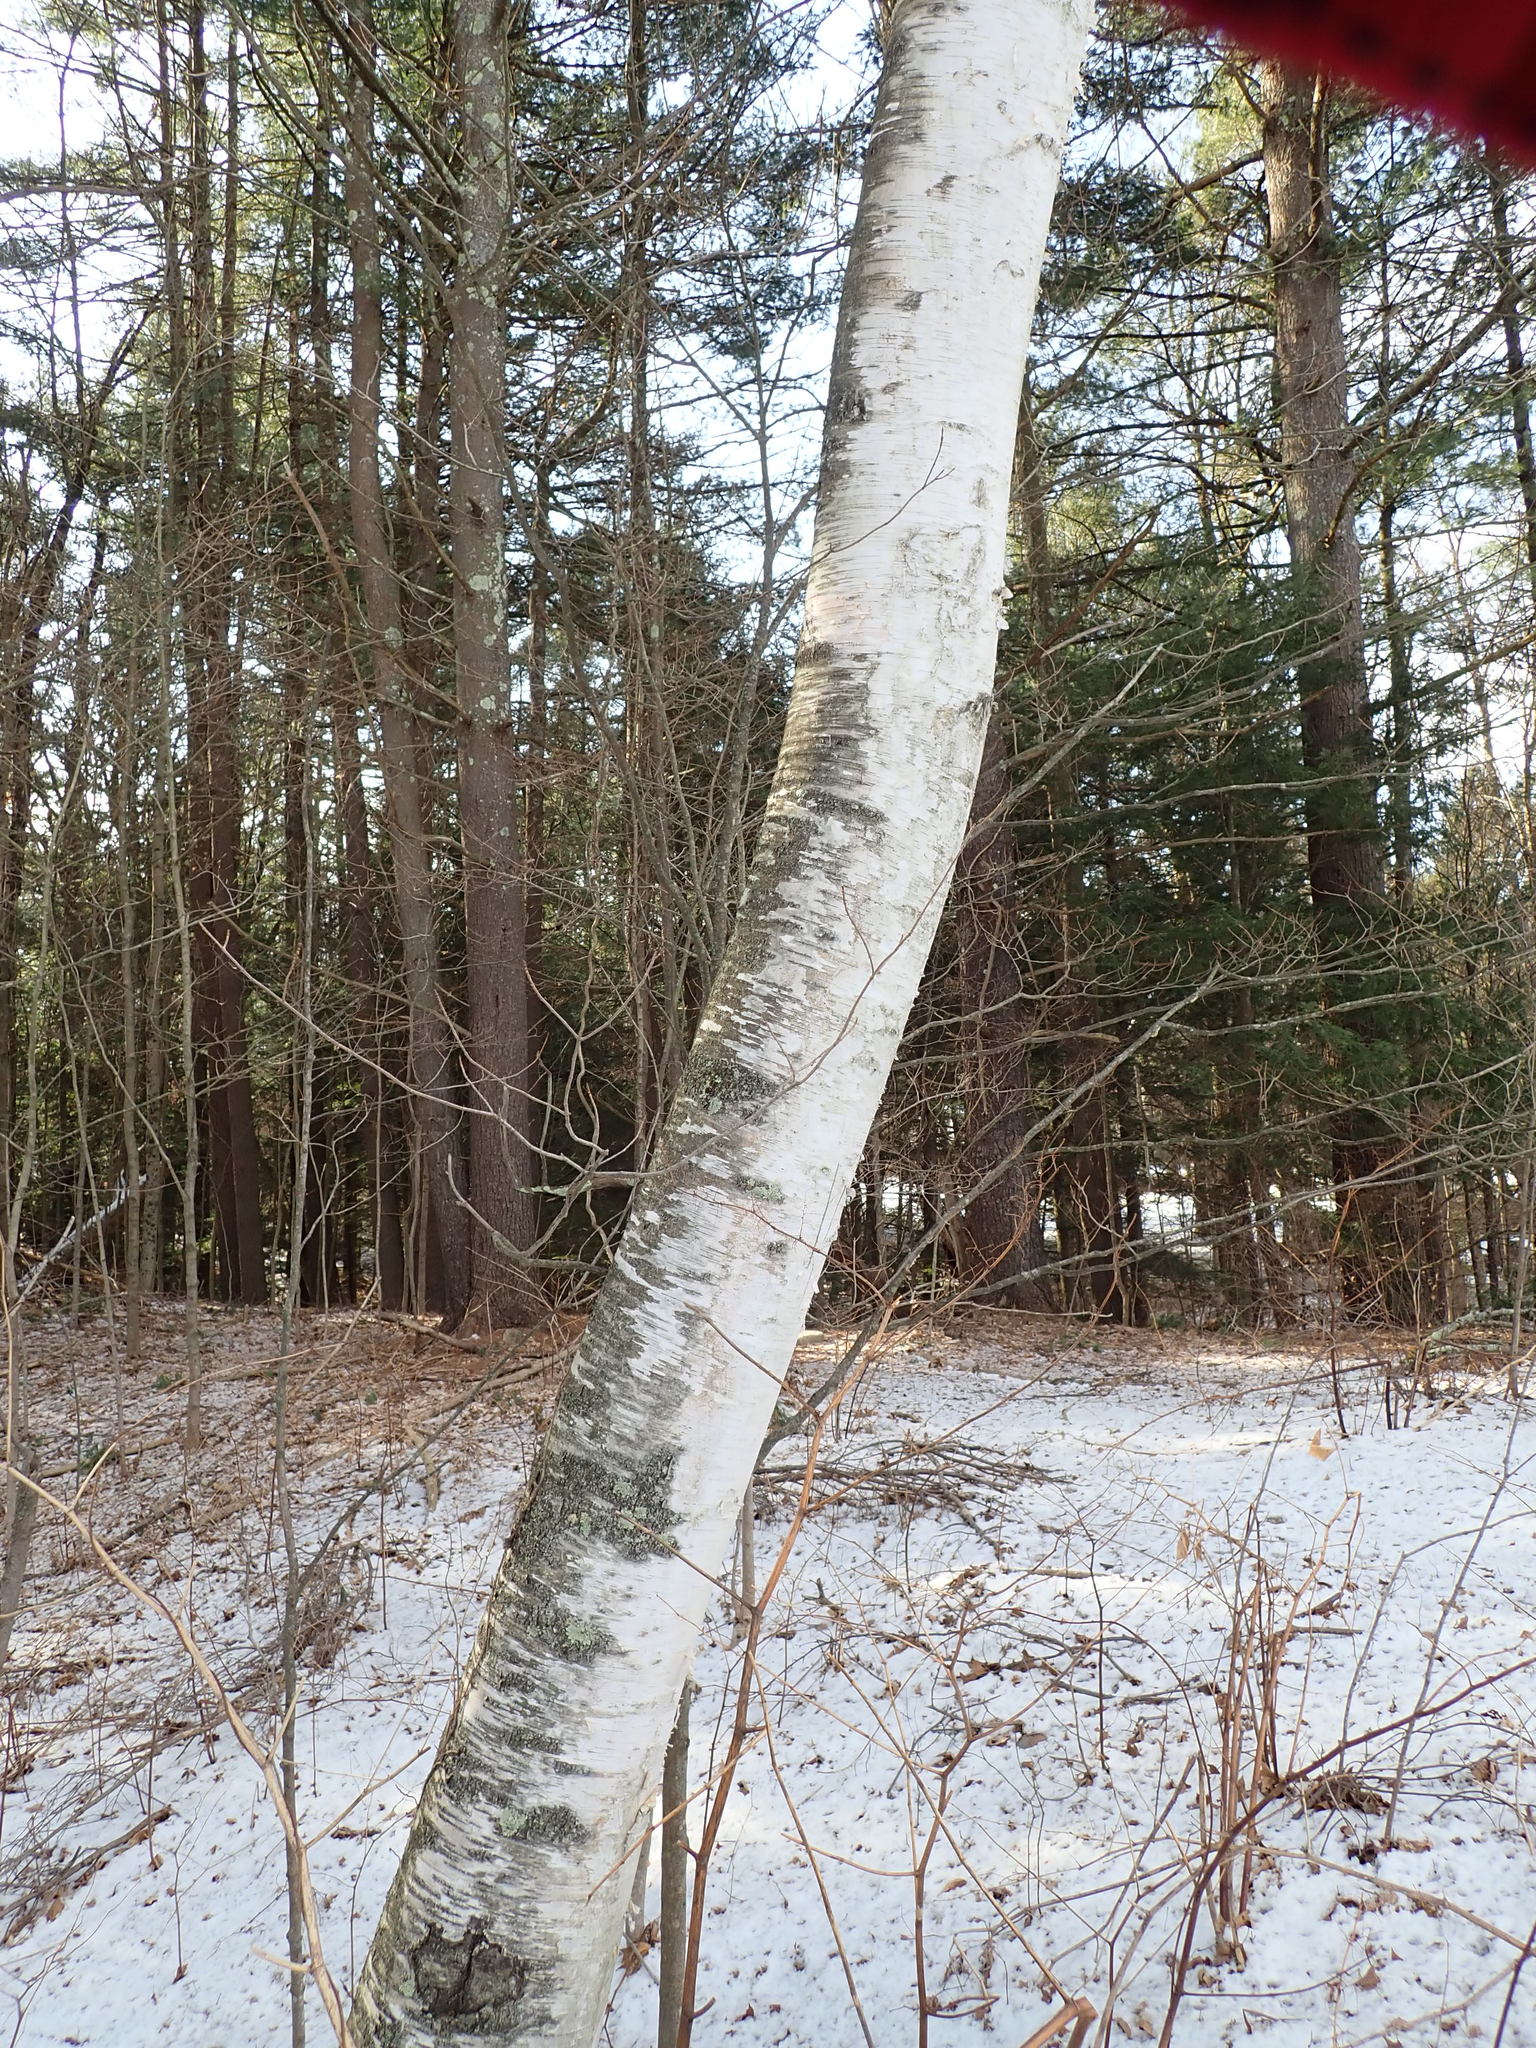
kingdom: Plantae
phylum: Tracheophyta
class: Magnoliopsida
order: Fagales
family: Betulaceae
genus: Betula
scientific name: Betula papyrifera
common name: Paper birch
